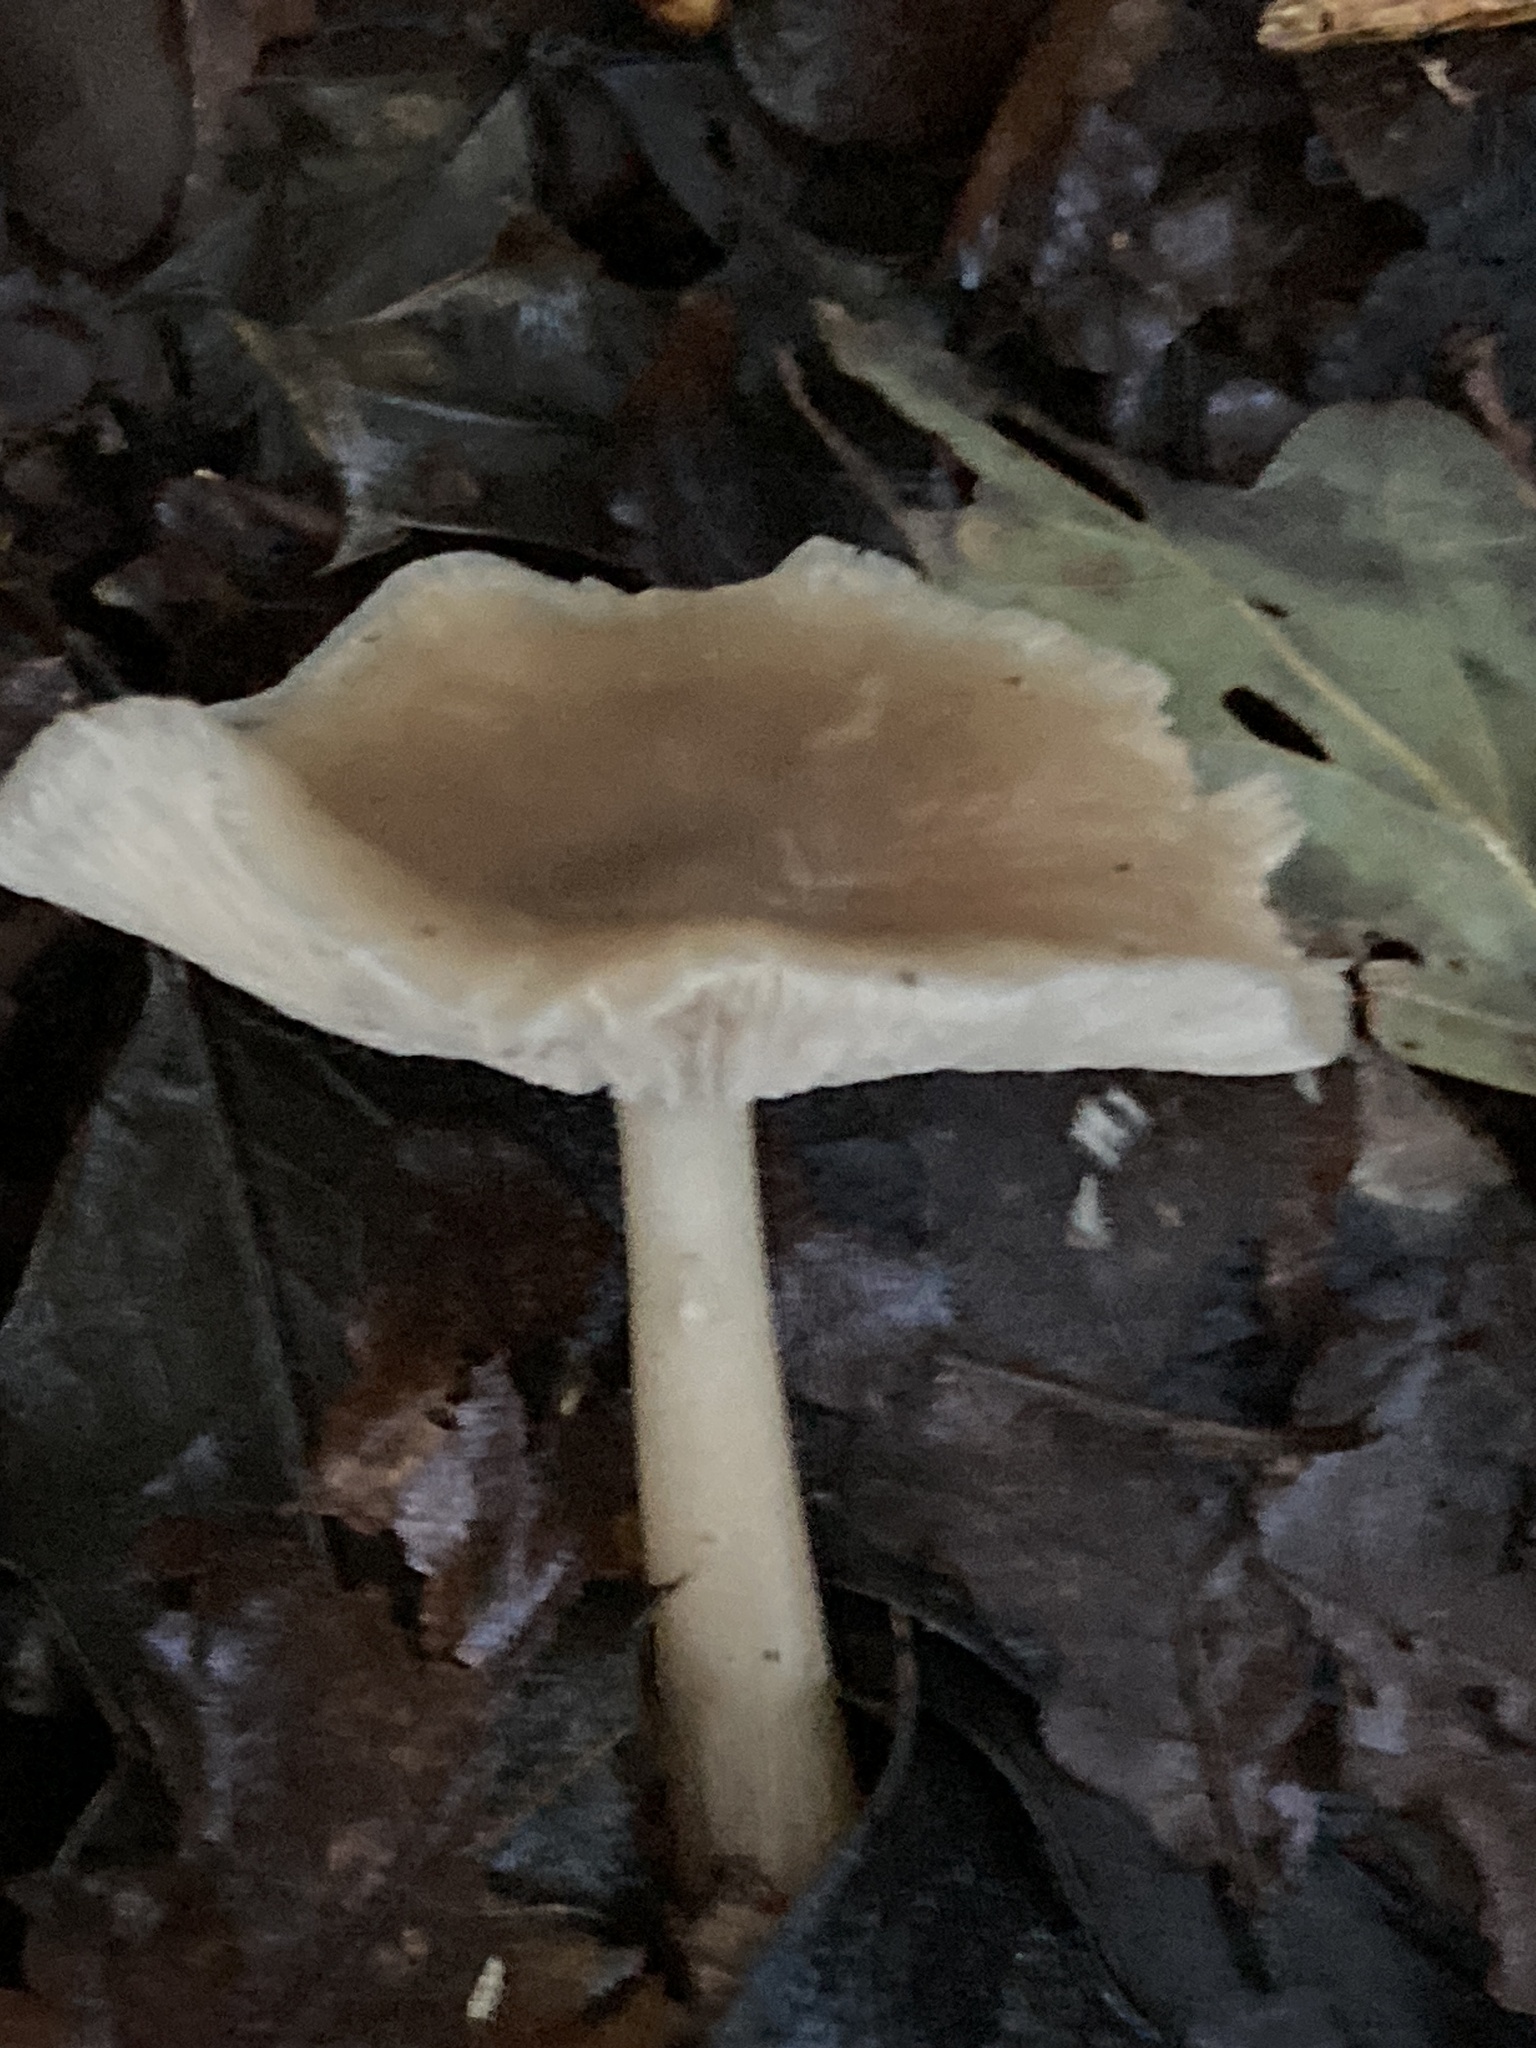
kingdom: Fungi
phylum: Basidiomycota
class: Agaricomycetes
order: Agaricales
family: Omphalotaceae
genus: Rhodocollybia
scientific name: Rhodocollybia butyracea
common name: Butter cap
